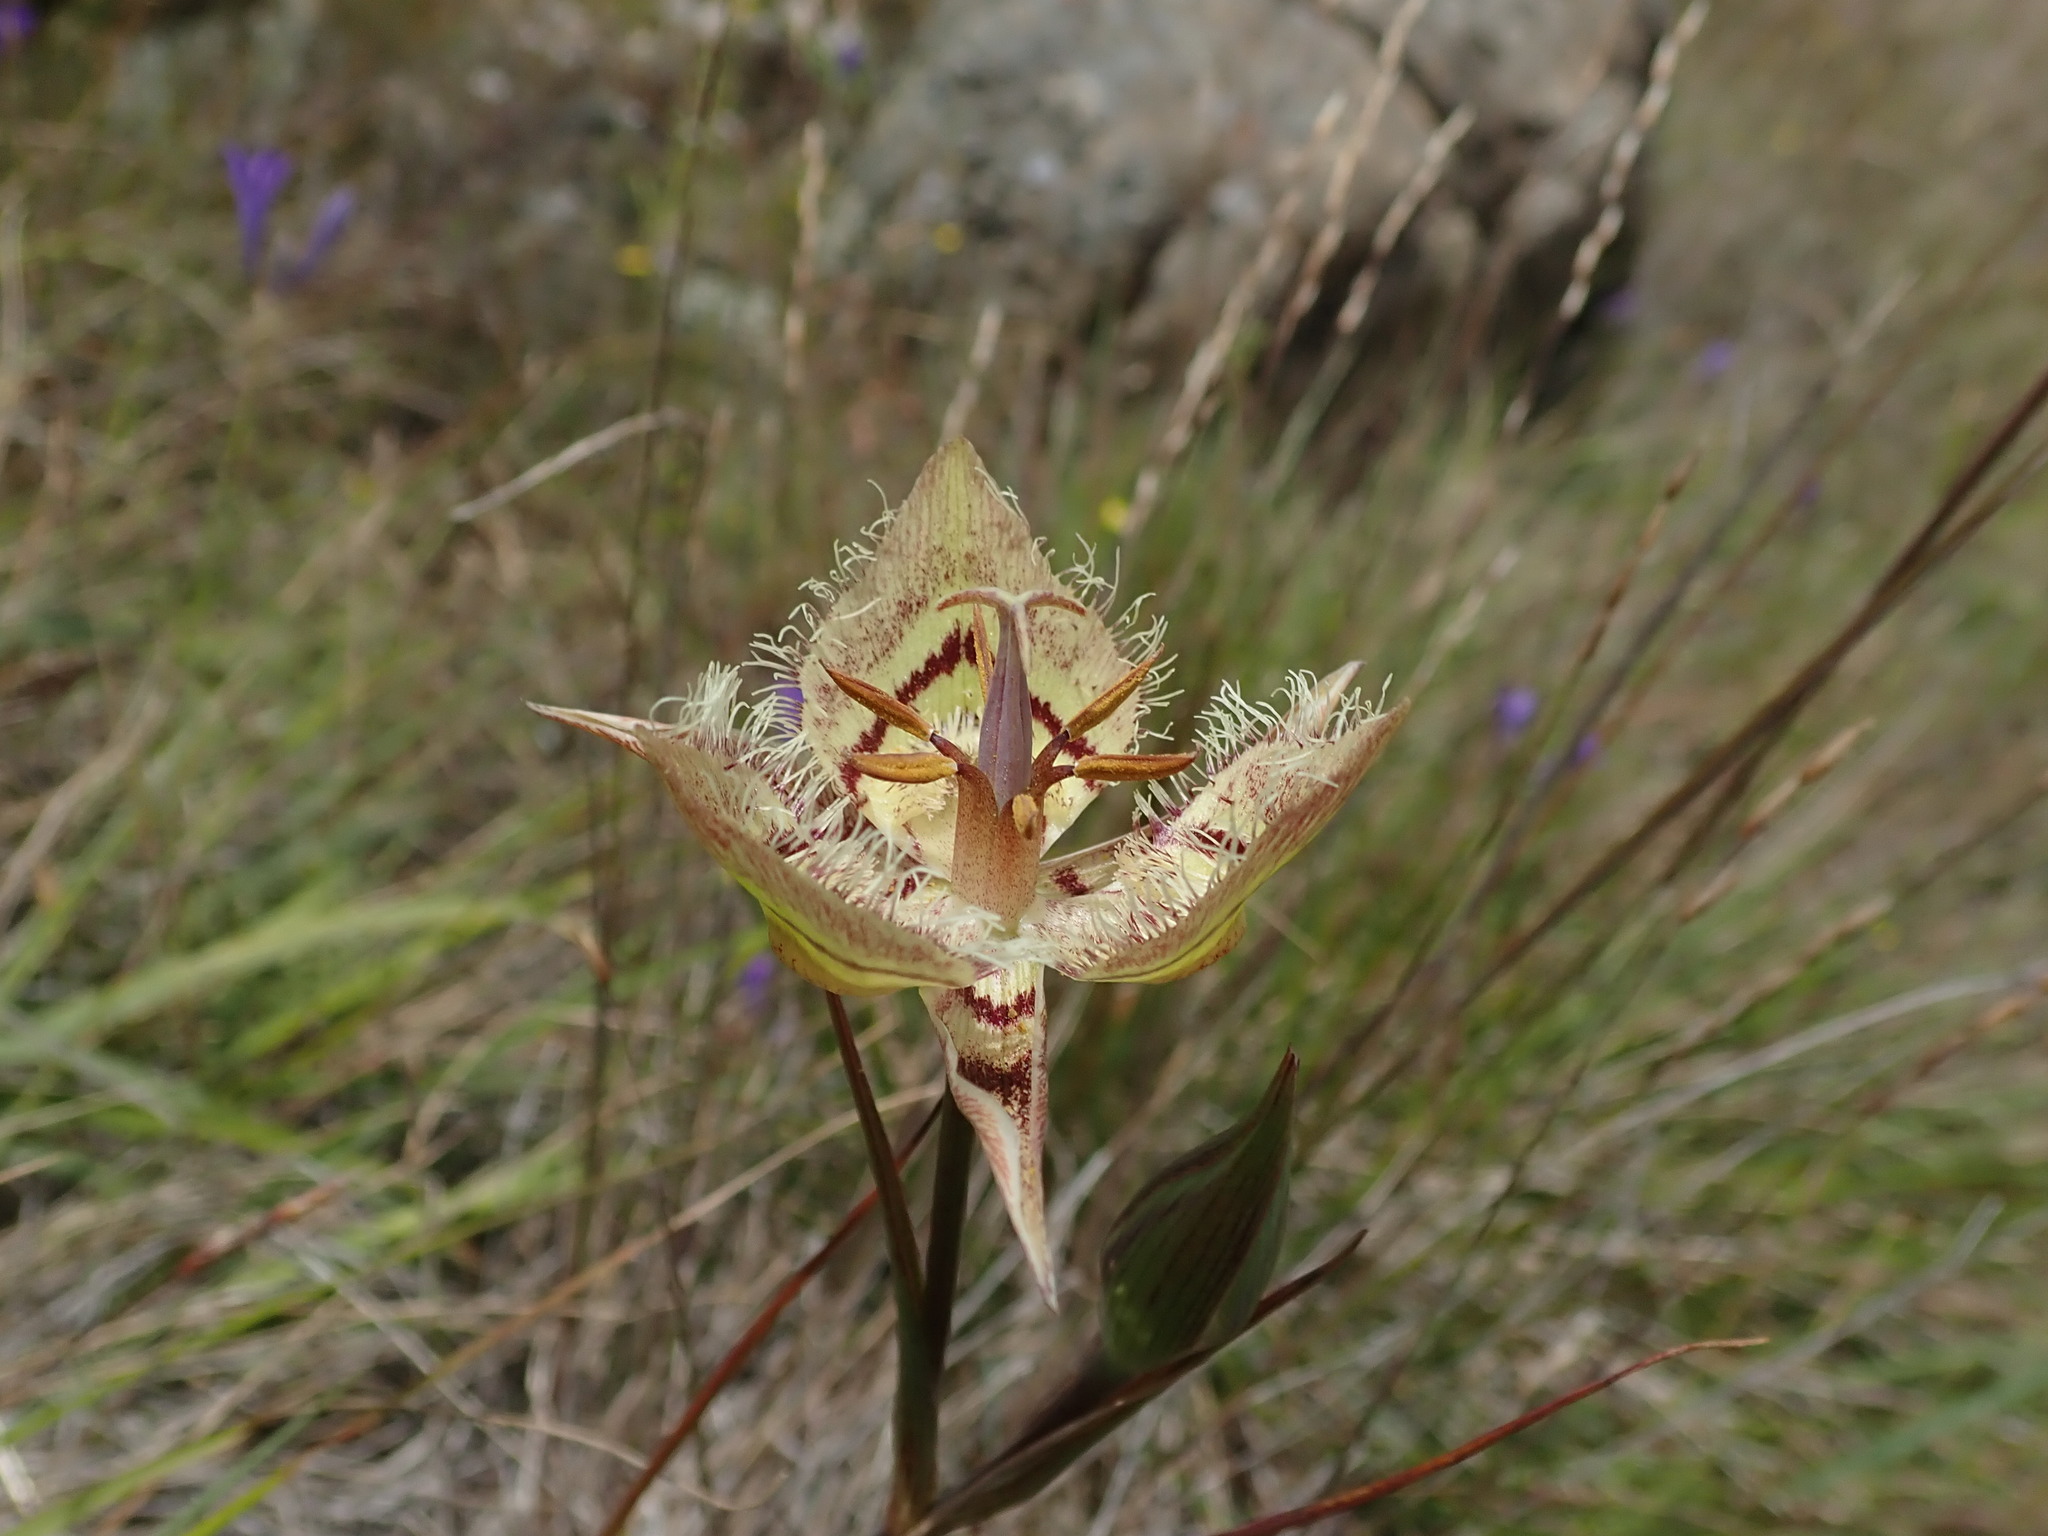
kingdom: Plantae
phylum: Tracheophyta
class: Liliopsida
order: Liliales
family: Liliaceae
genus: Calochortus
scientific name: Calochortus tiburonensis
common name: Tiburon mariposa-lily
